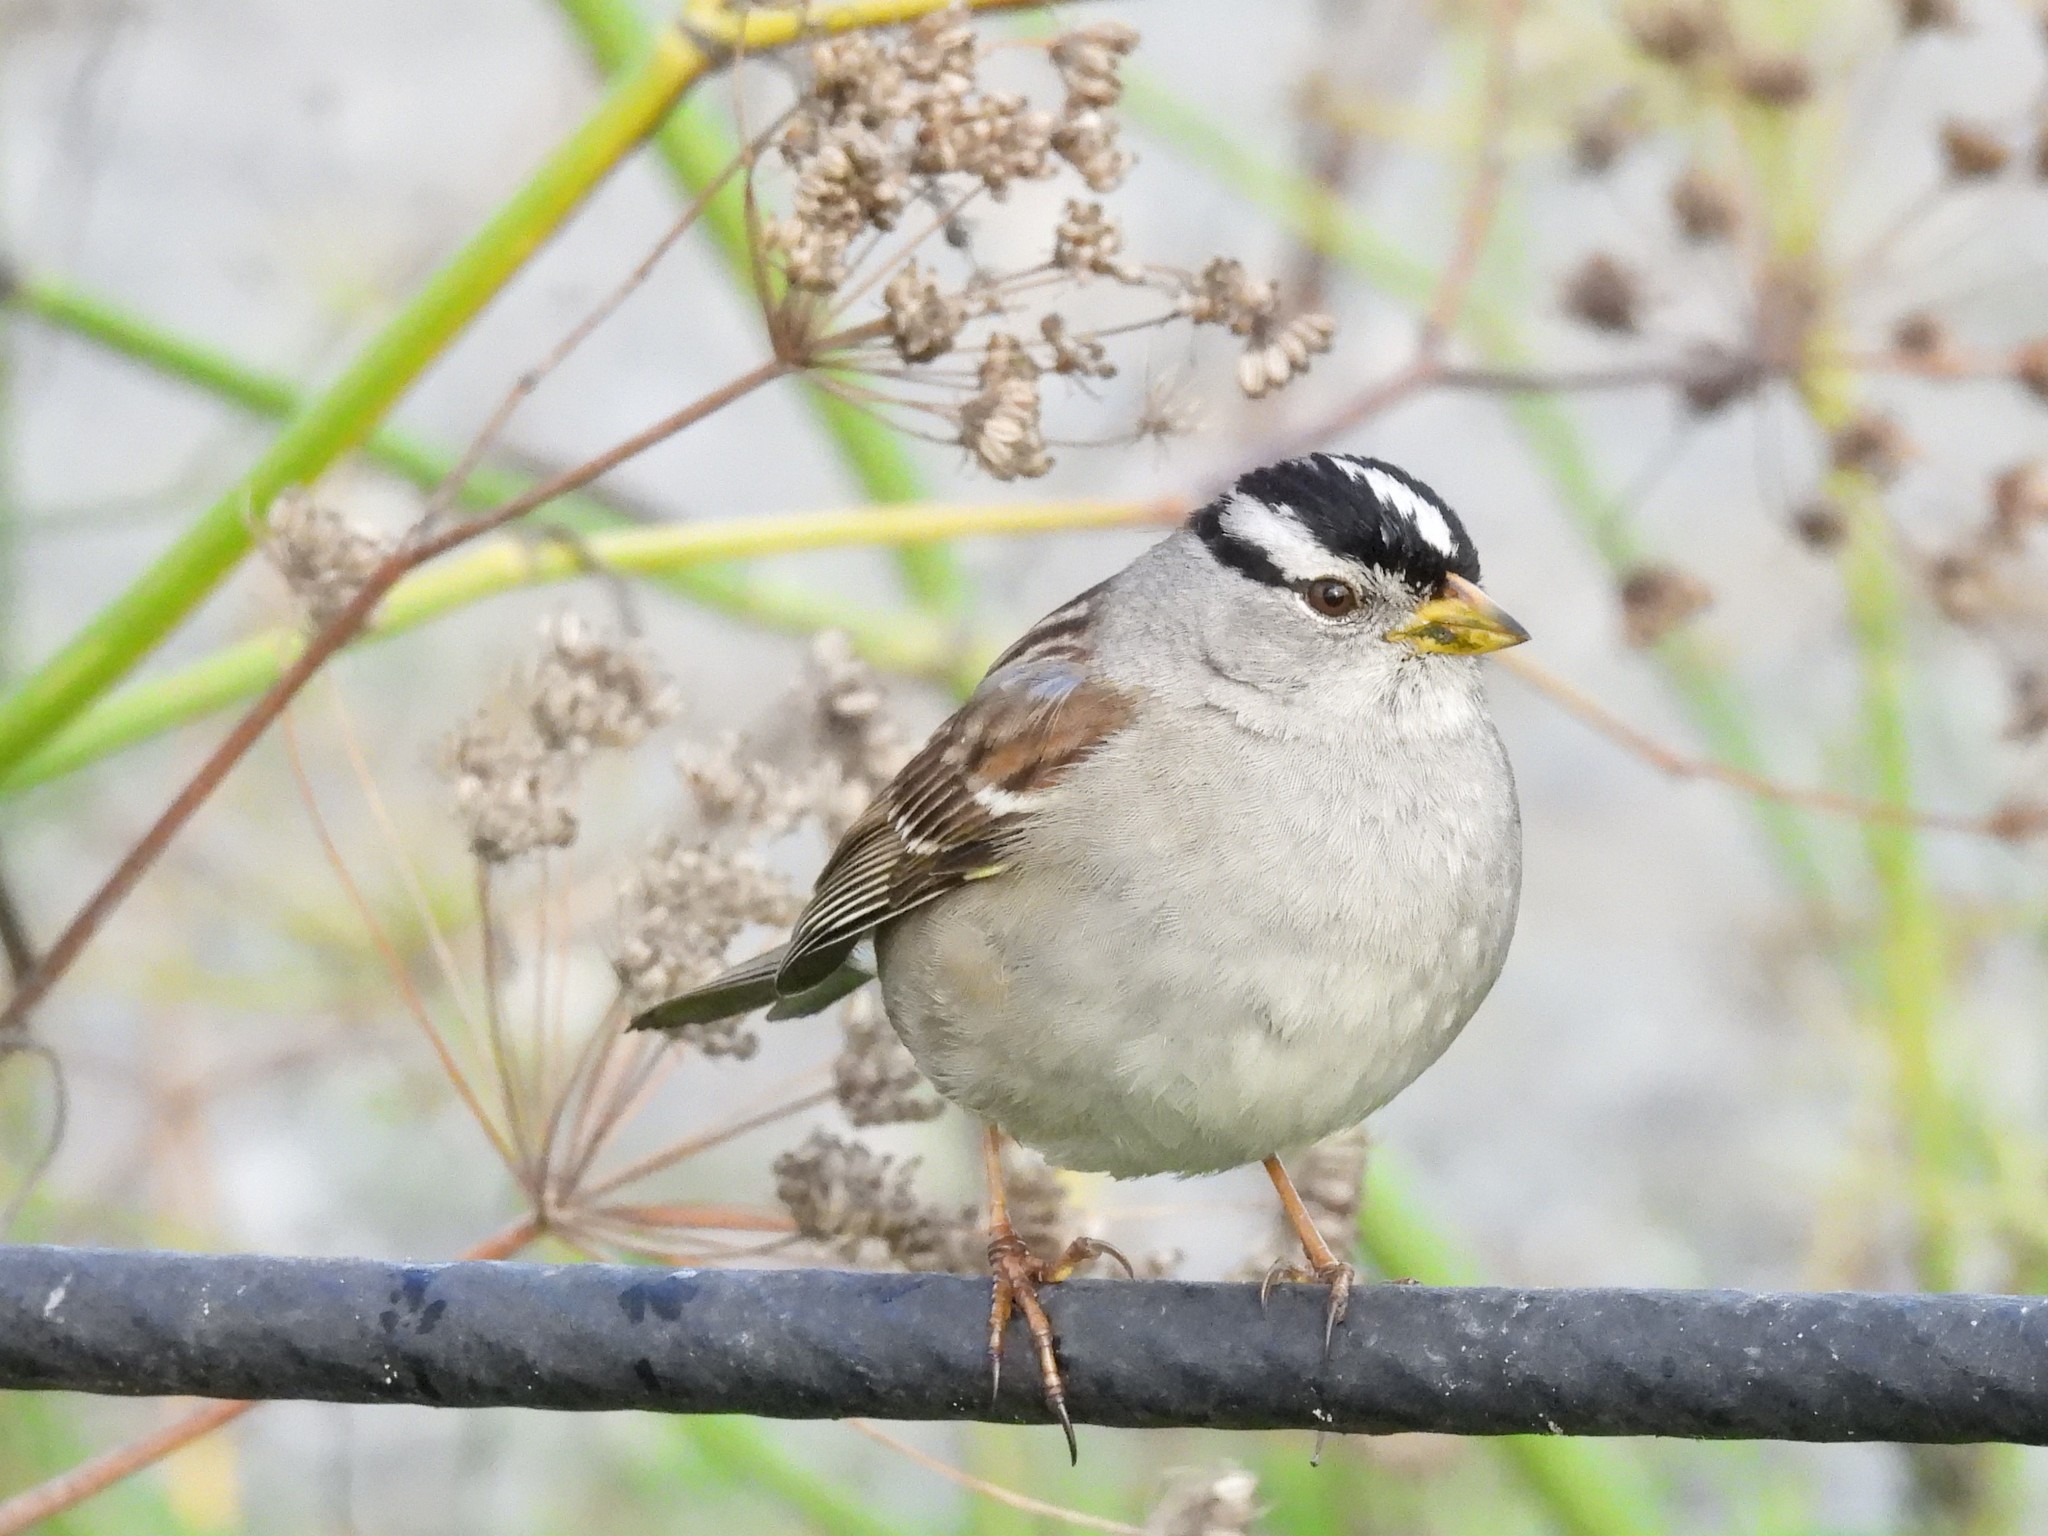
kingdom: Animalia
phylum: Chordata
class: Aves
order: Passeriformes
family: Passerellidae
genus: Zonotrichia
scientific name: Zonotrichia leucophrys
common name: White-crowned sparrow
